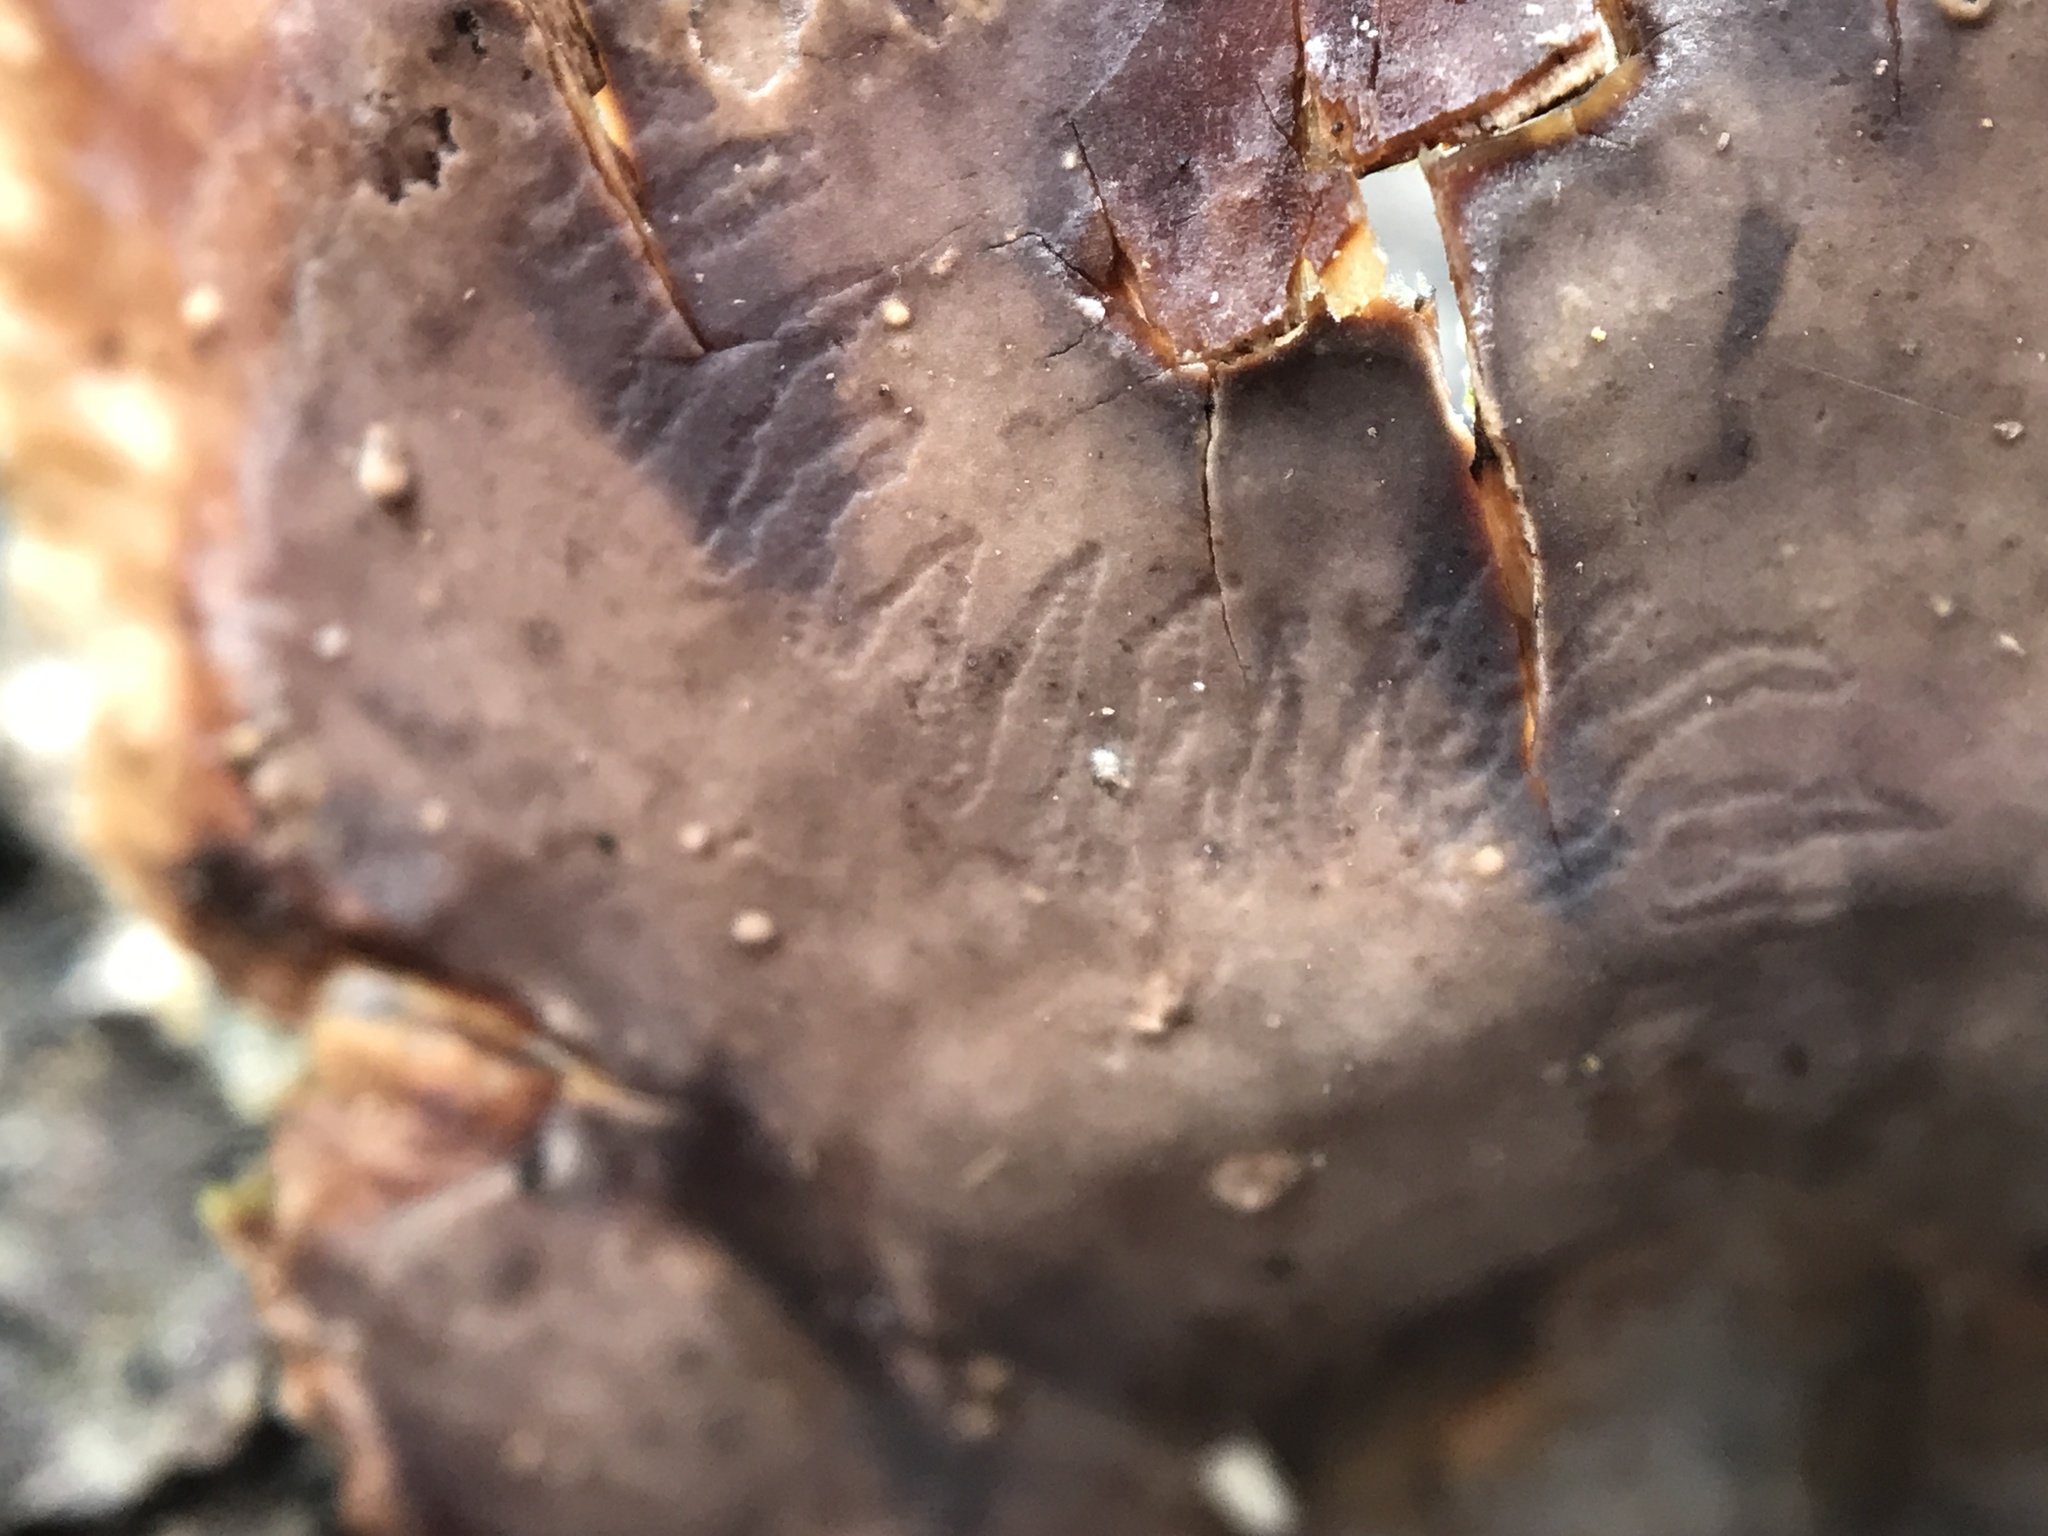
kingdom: Fungi
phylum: Basidiomycota
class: Agaricomycetes
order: Russulales
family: Stereaceae
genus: Stereum
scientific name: Stereum ostrea
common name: False turkeytail
